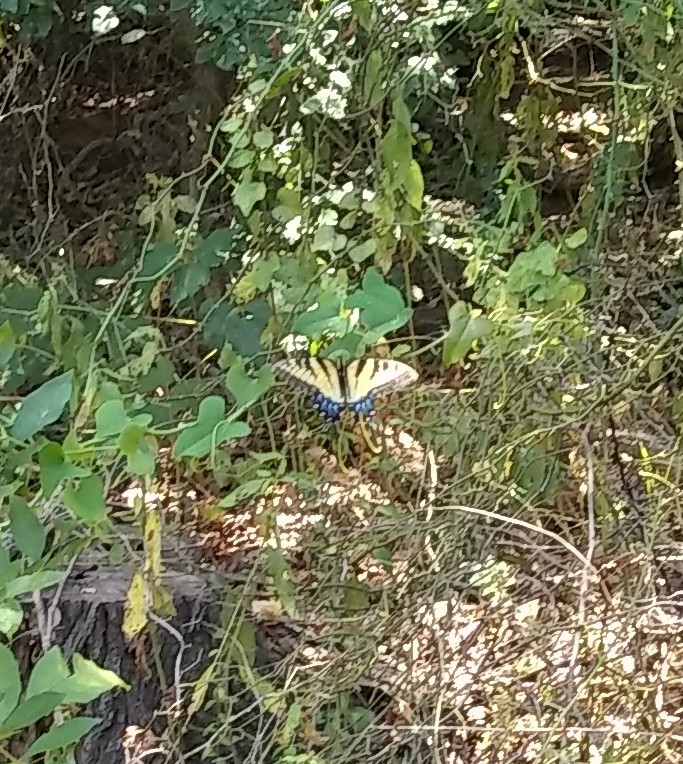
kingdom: Animalia
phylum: Arthropoda
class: Insecta
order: Lepidoptera
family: Papilionidae
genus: Papilio
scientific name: Papilio glaucus
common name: Tiger swallowtail
